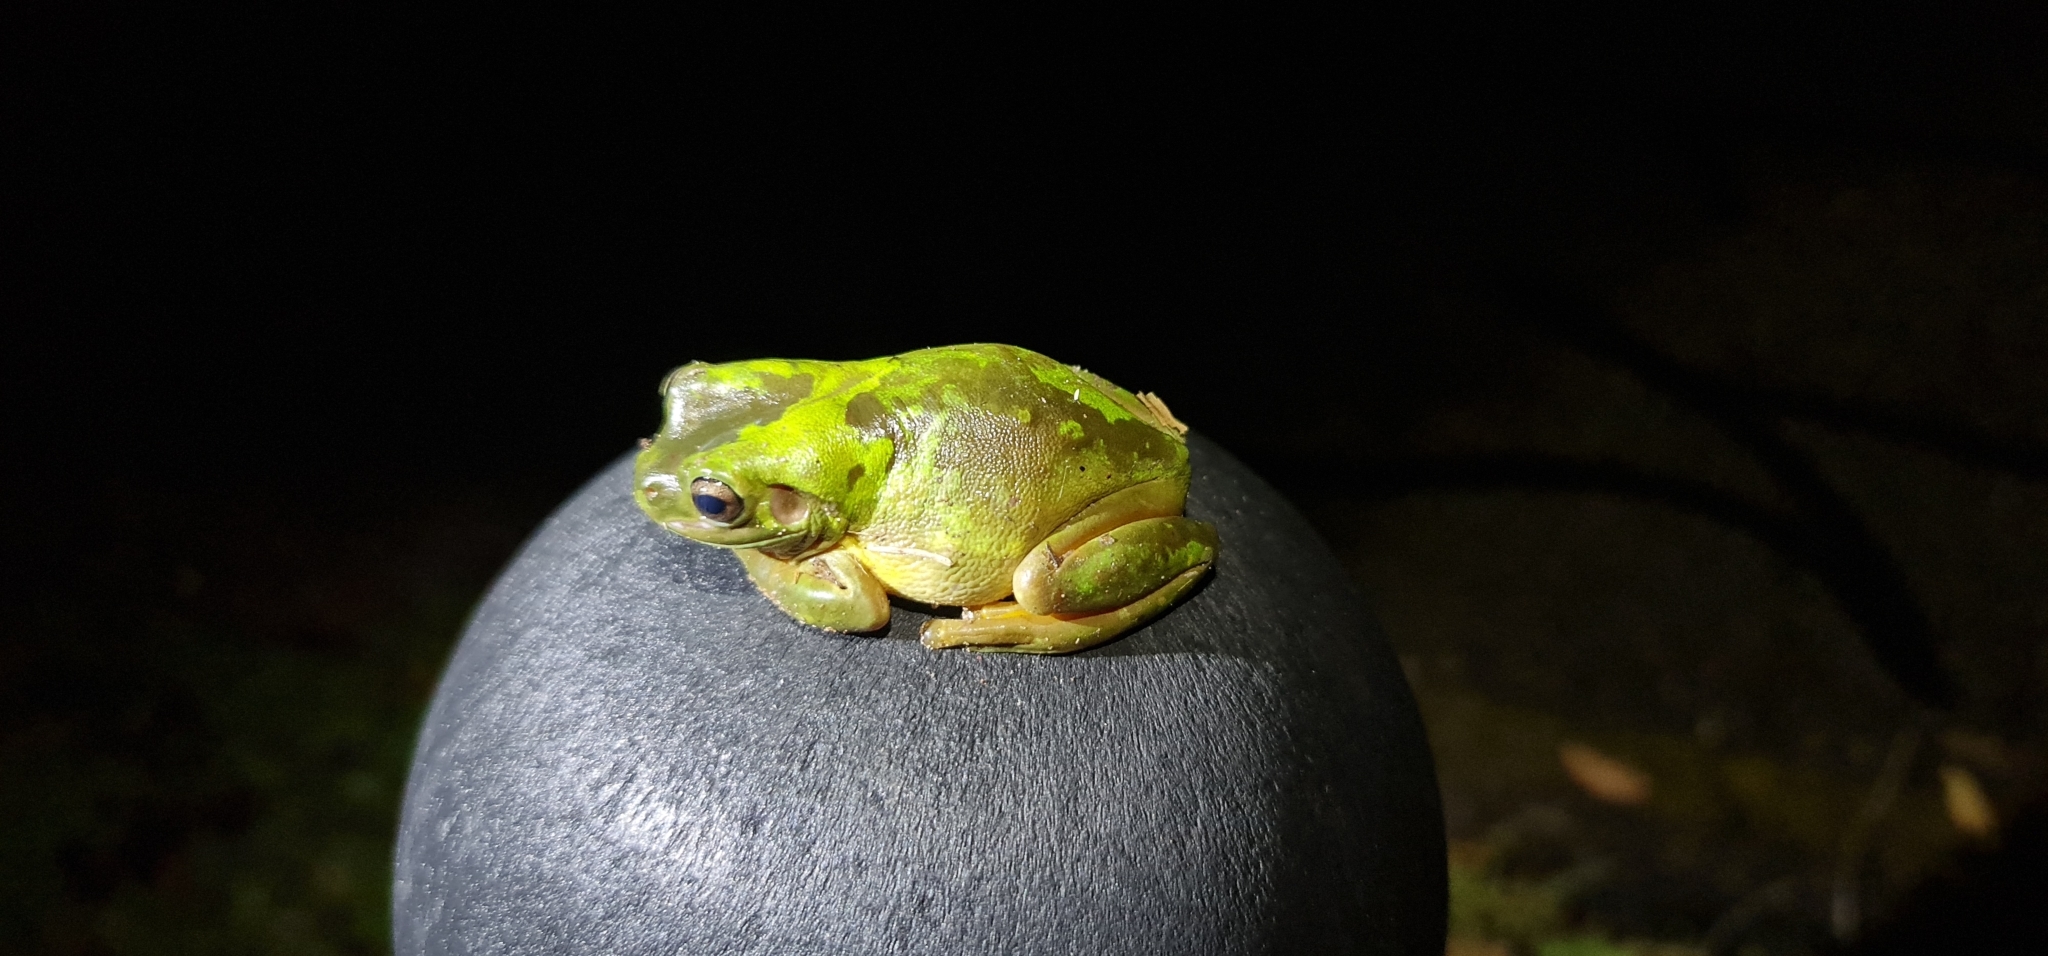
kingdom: Animalia
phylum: Chordata
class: Amphibia
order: Anura
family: Pelodryadidae
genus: Ranoidea
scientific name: Ranoidea caerulea
